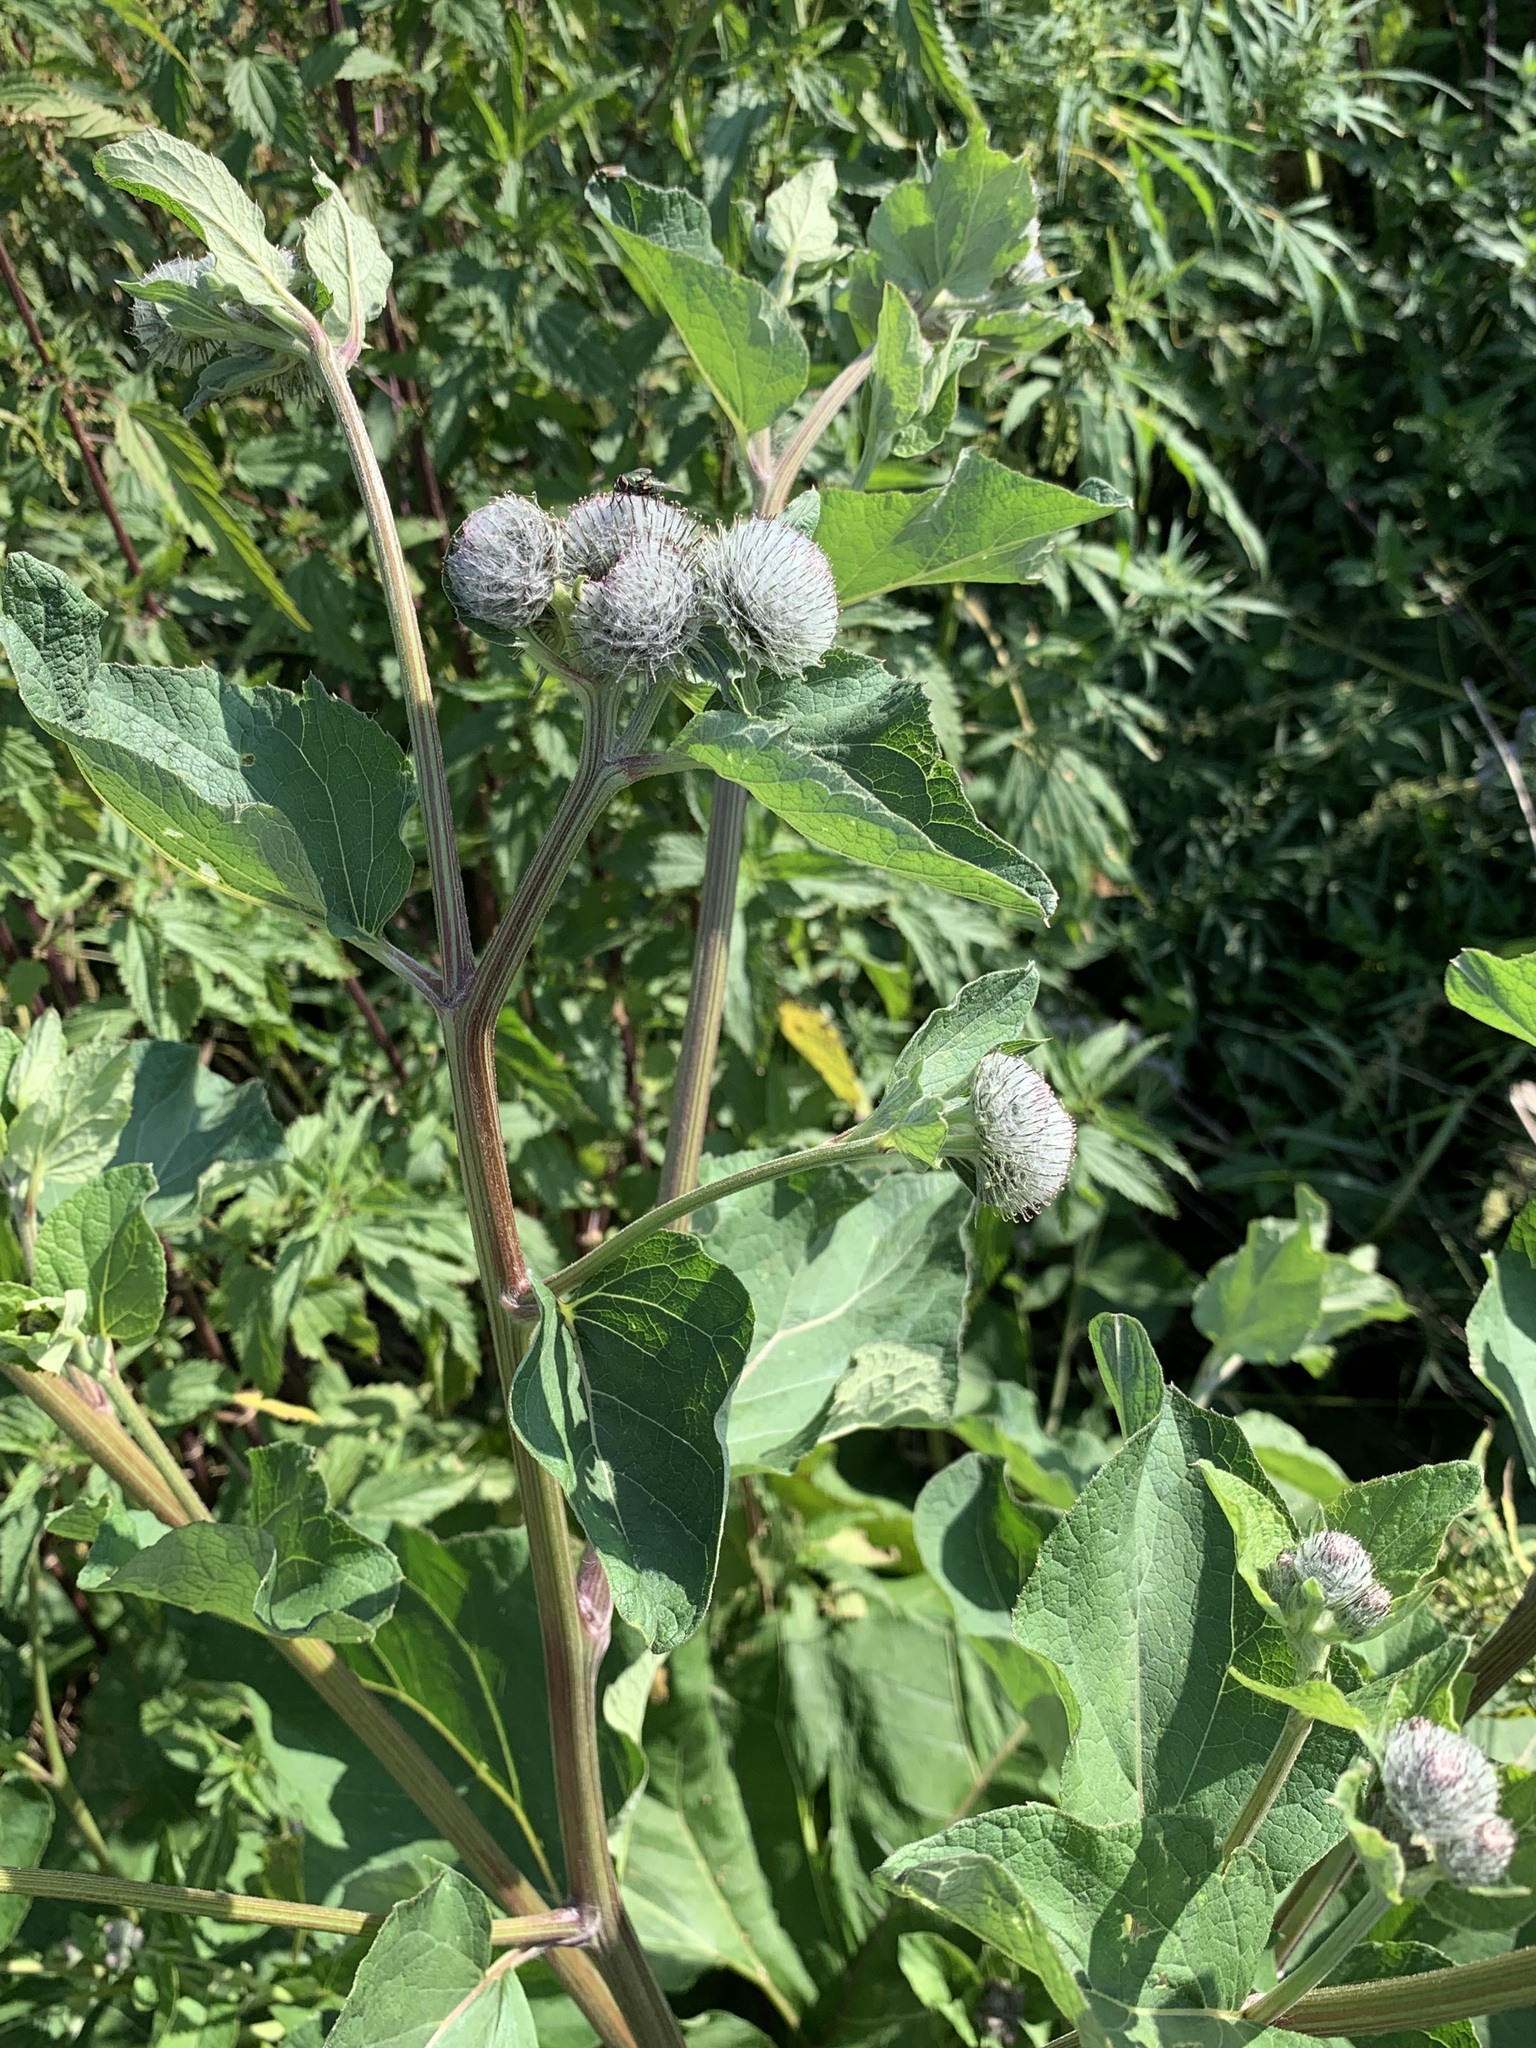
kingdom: Plantae
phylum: Tracheophyta
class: Magnoliopsida
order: Asterales
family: Asteraceae
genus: Arctium
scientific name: Arctium tomentosum
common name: Woolly burdock
